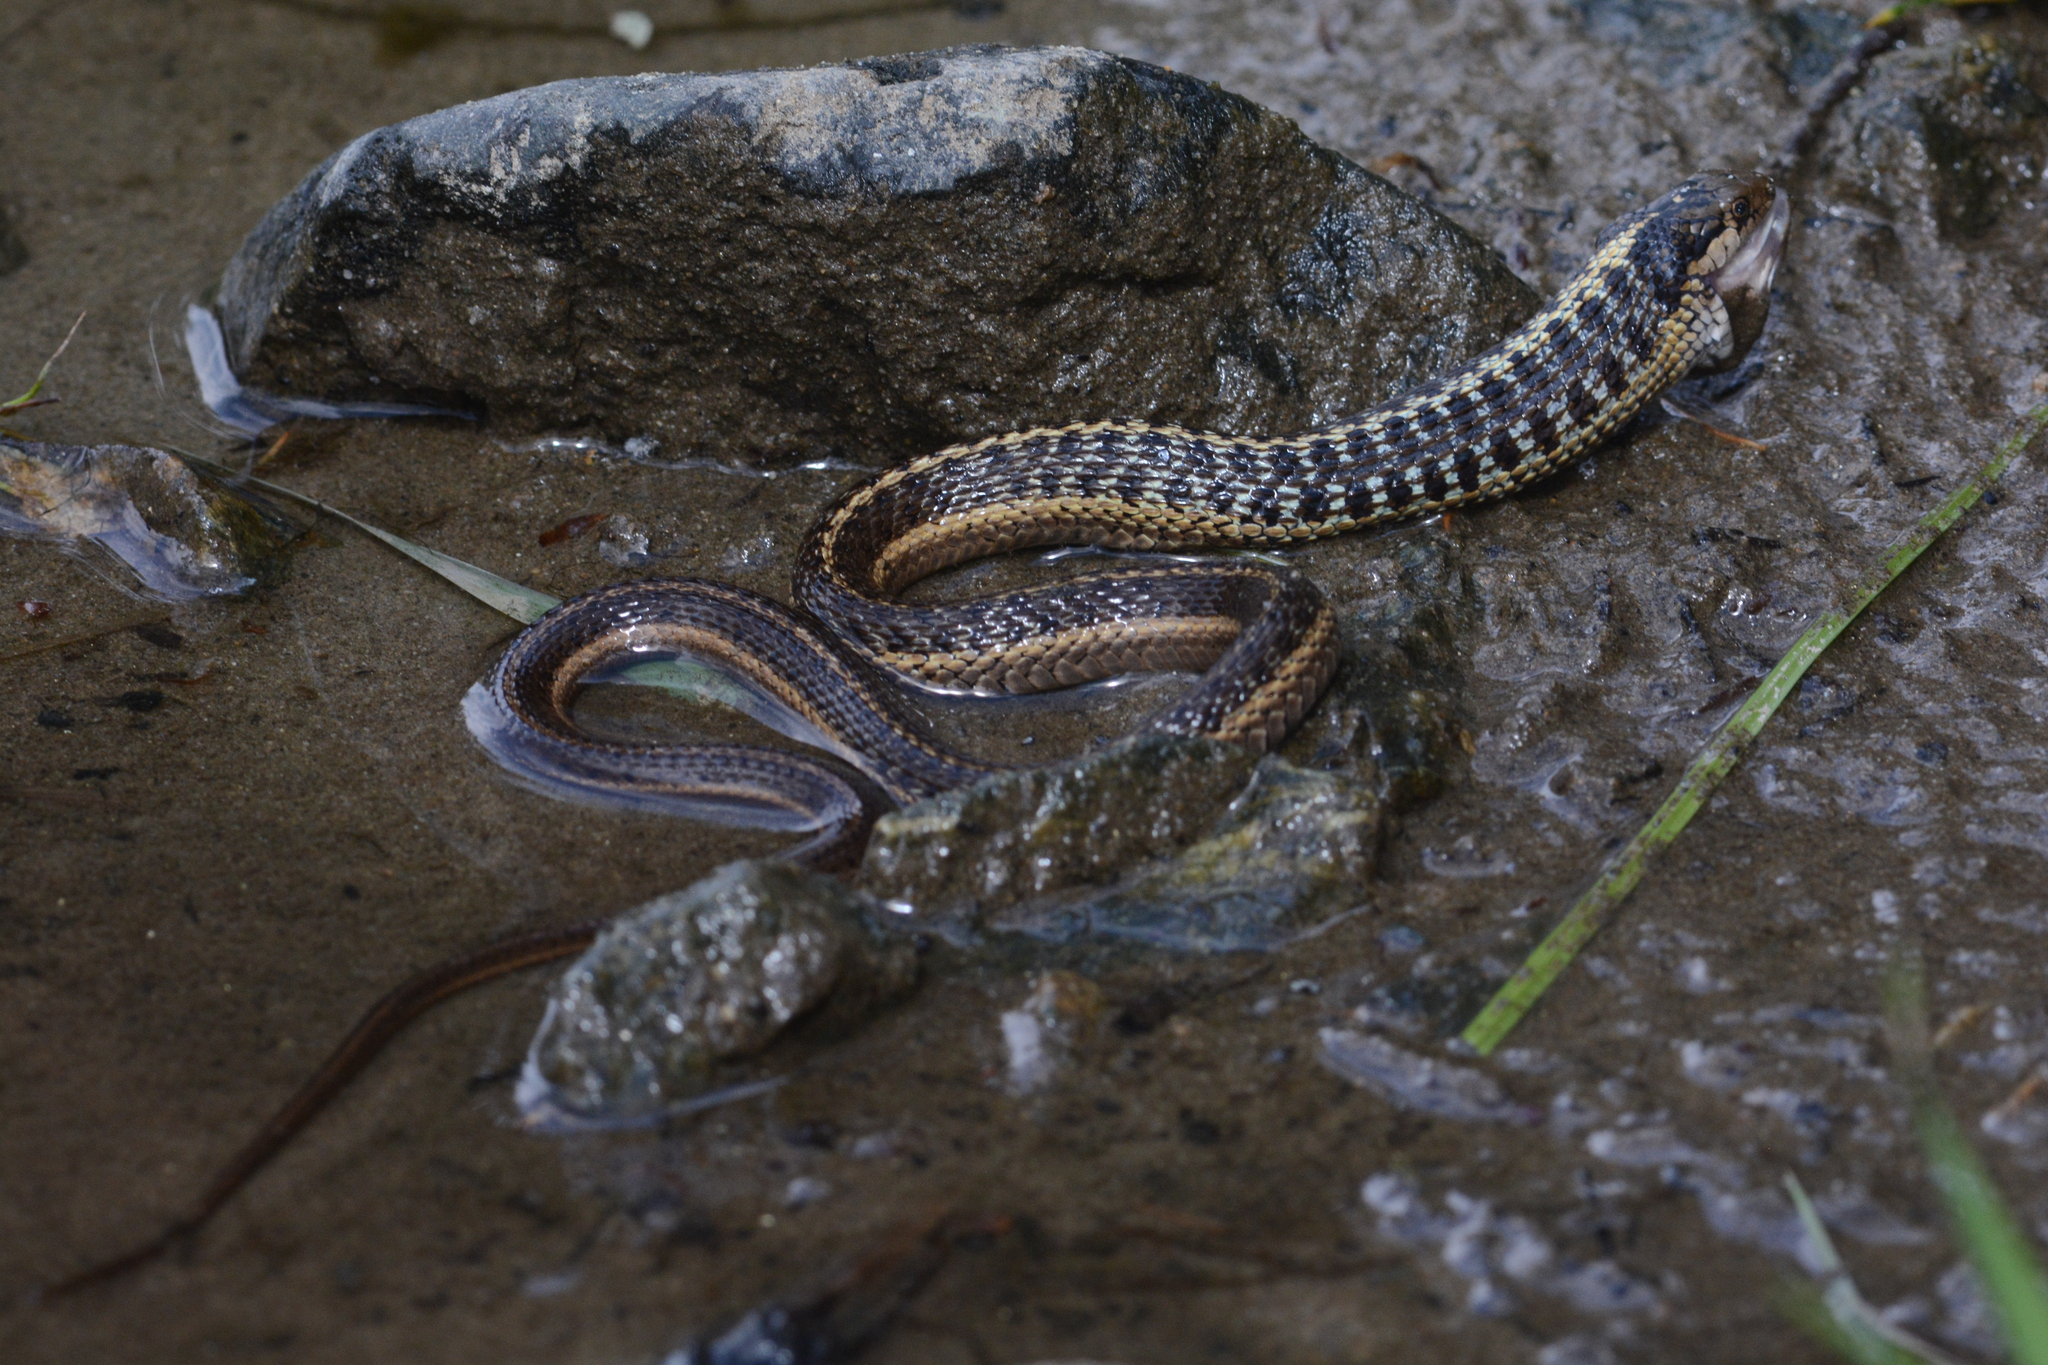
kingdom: Animalia
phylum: Chordata
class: Squamata
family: Colubridae
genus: Thamnophis
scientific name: Thamnophis elegans
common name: Western terrestrial garter snake
